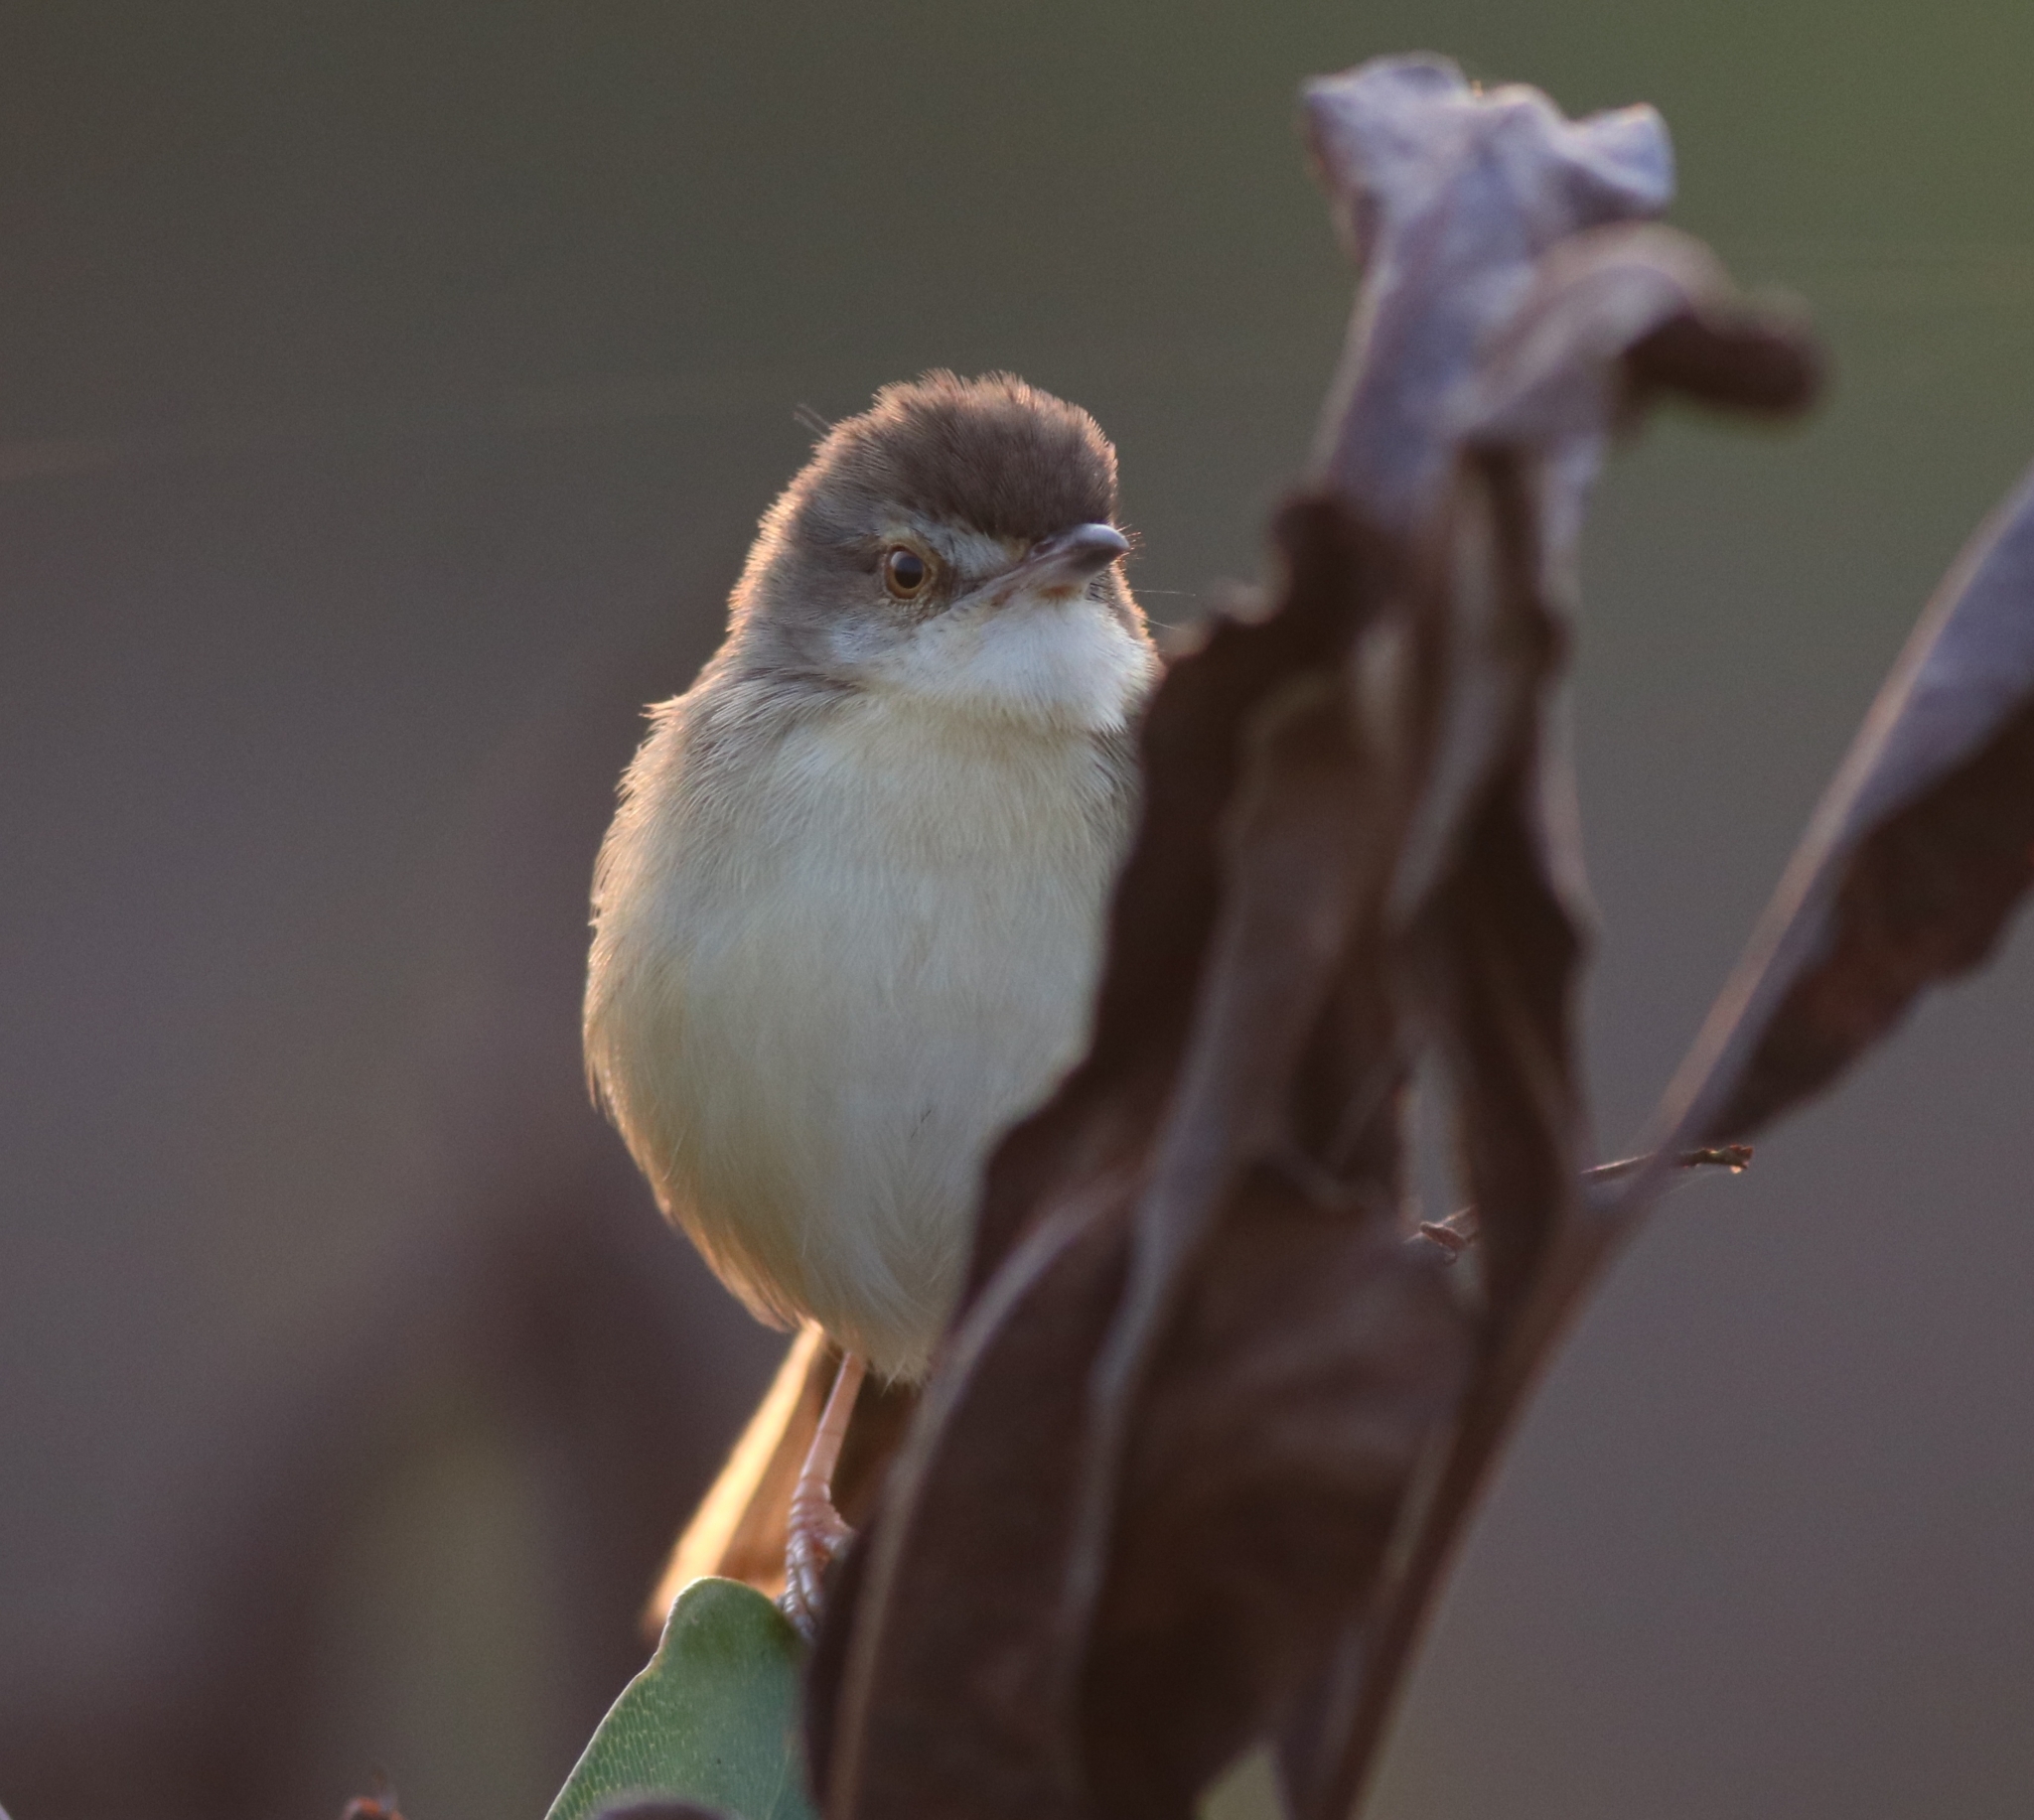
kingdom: Animalia
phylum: Chordata
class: Aves
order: Passeriformes
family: Cisticolidae
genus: Prinia
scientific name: Prinia inornata
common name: Plain prinia
